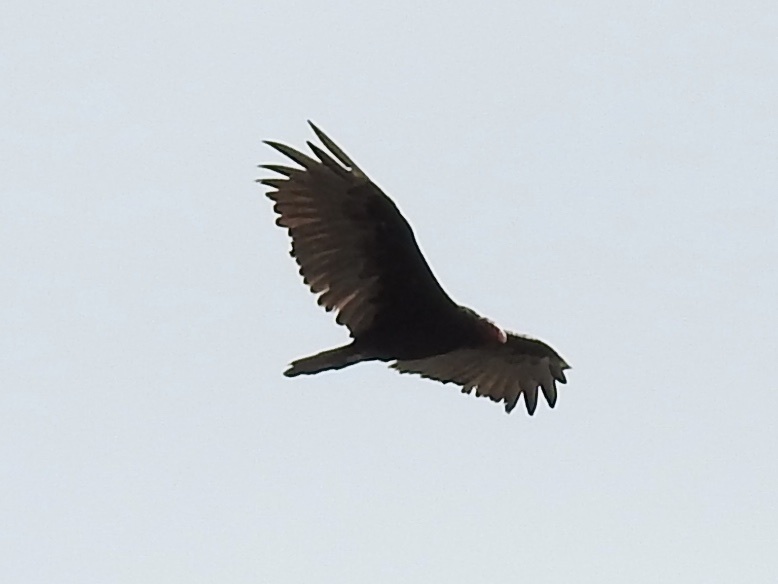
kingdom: Animalia
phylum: Chordata
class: Aves
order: Accipitriformes
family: Cathartidae
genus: Cathartes
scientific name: Cathartes aura
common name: Turkey vulture
